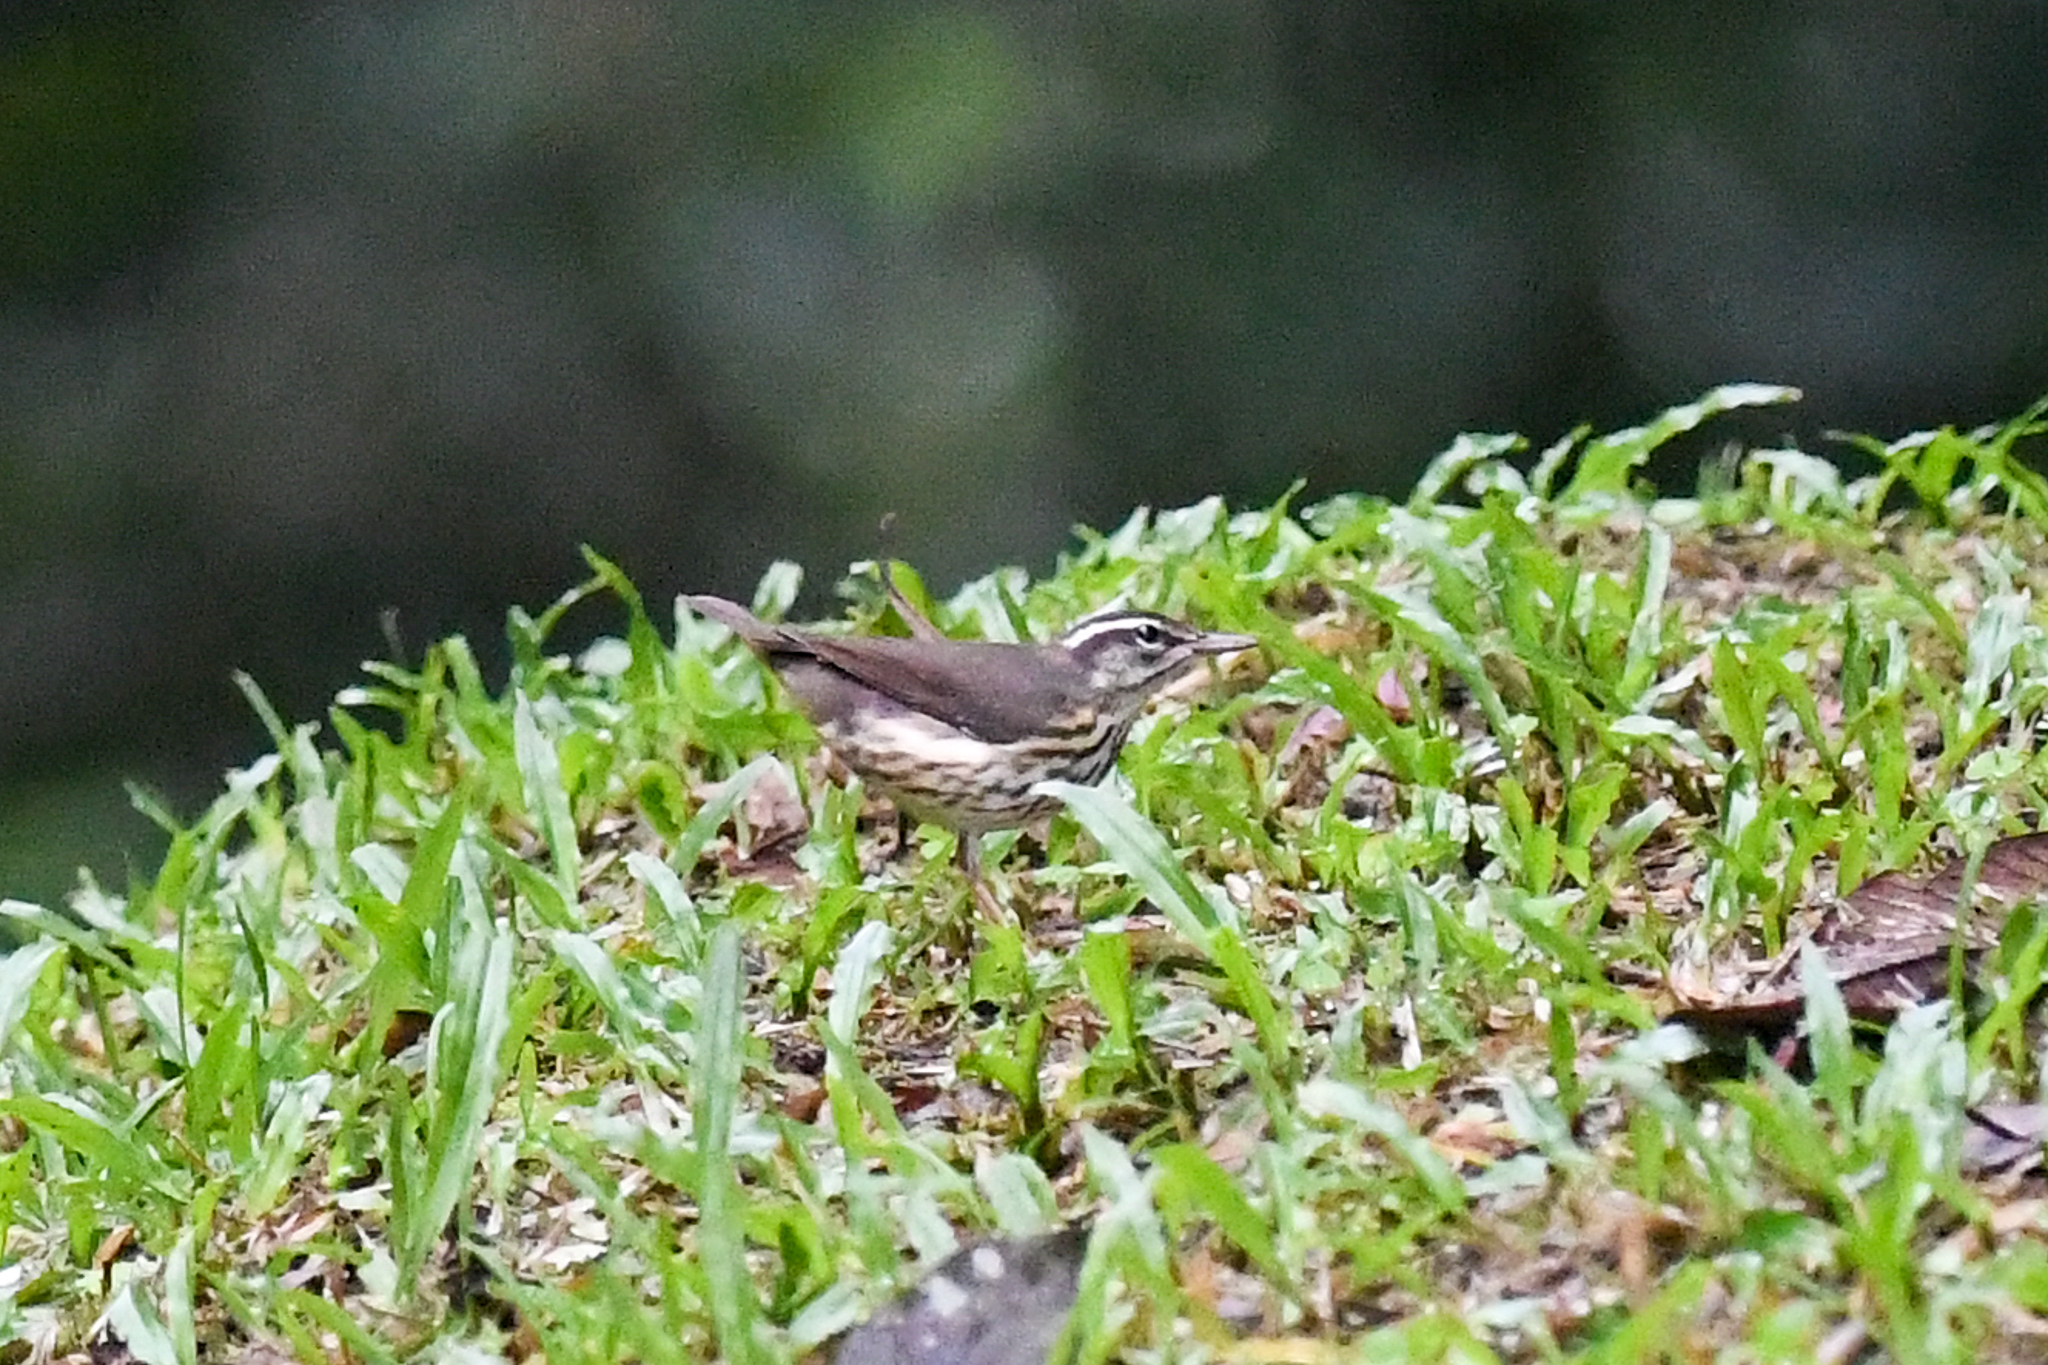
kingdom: Animalia
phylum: Chordata
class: Aves
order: Passeriformes
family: Parulidae
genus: Parkesia
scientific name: Parkesia motacilla
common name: Louisiana waterthrush
